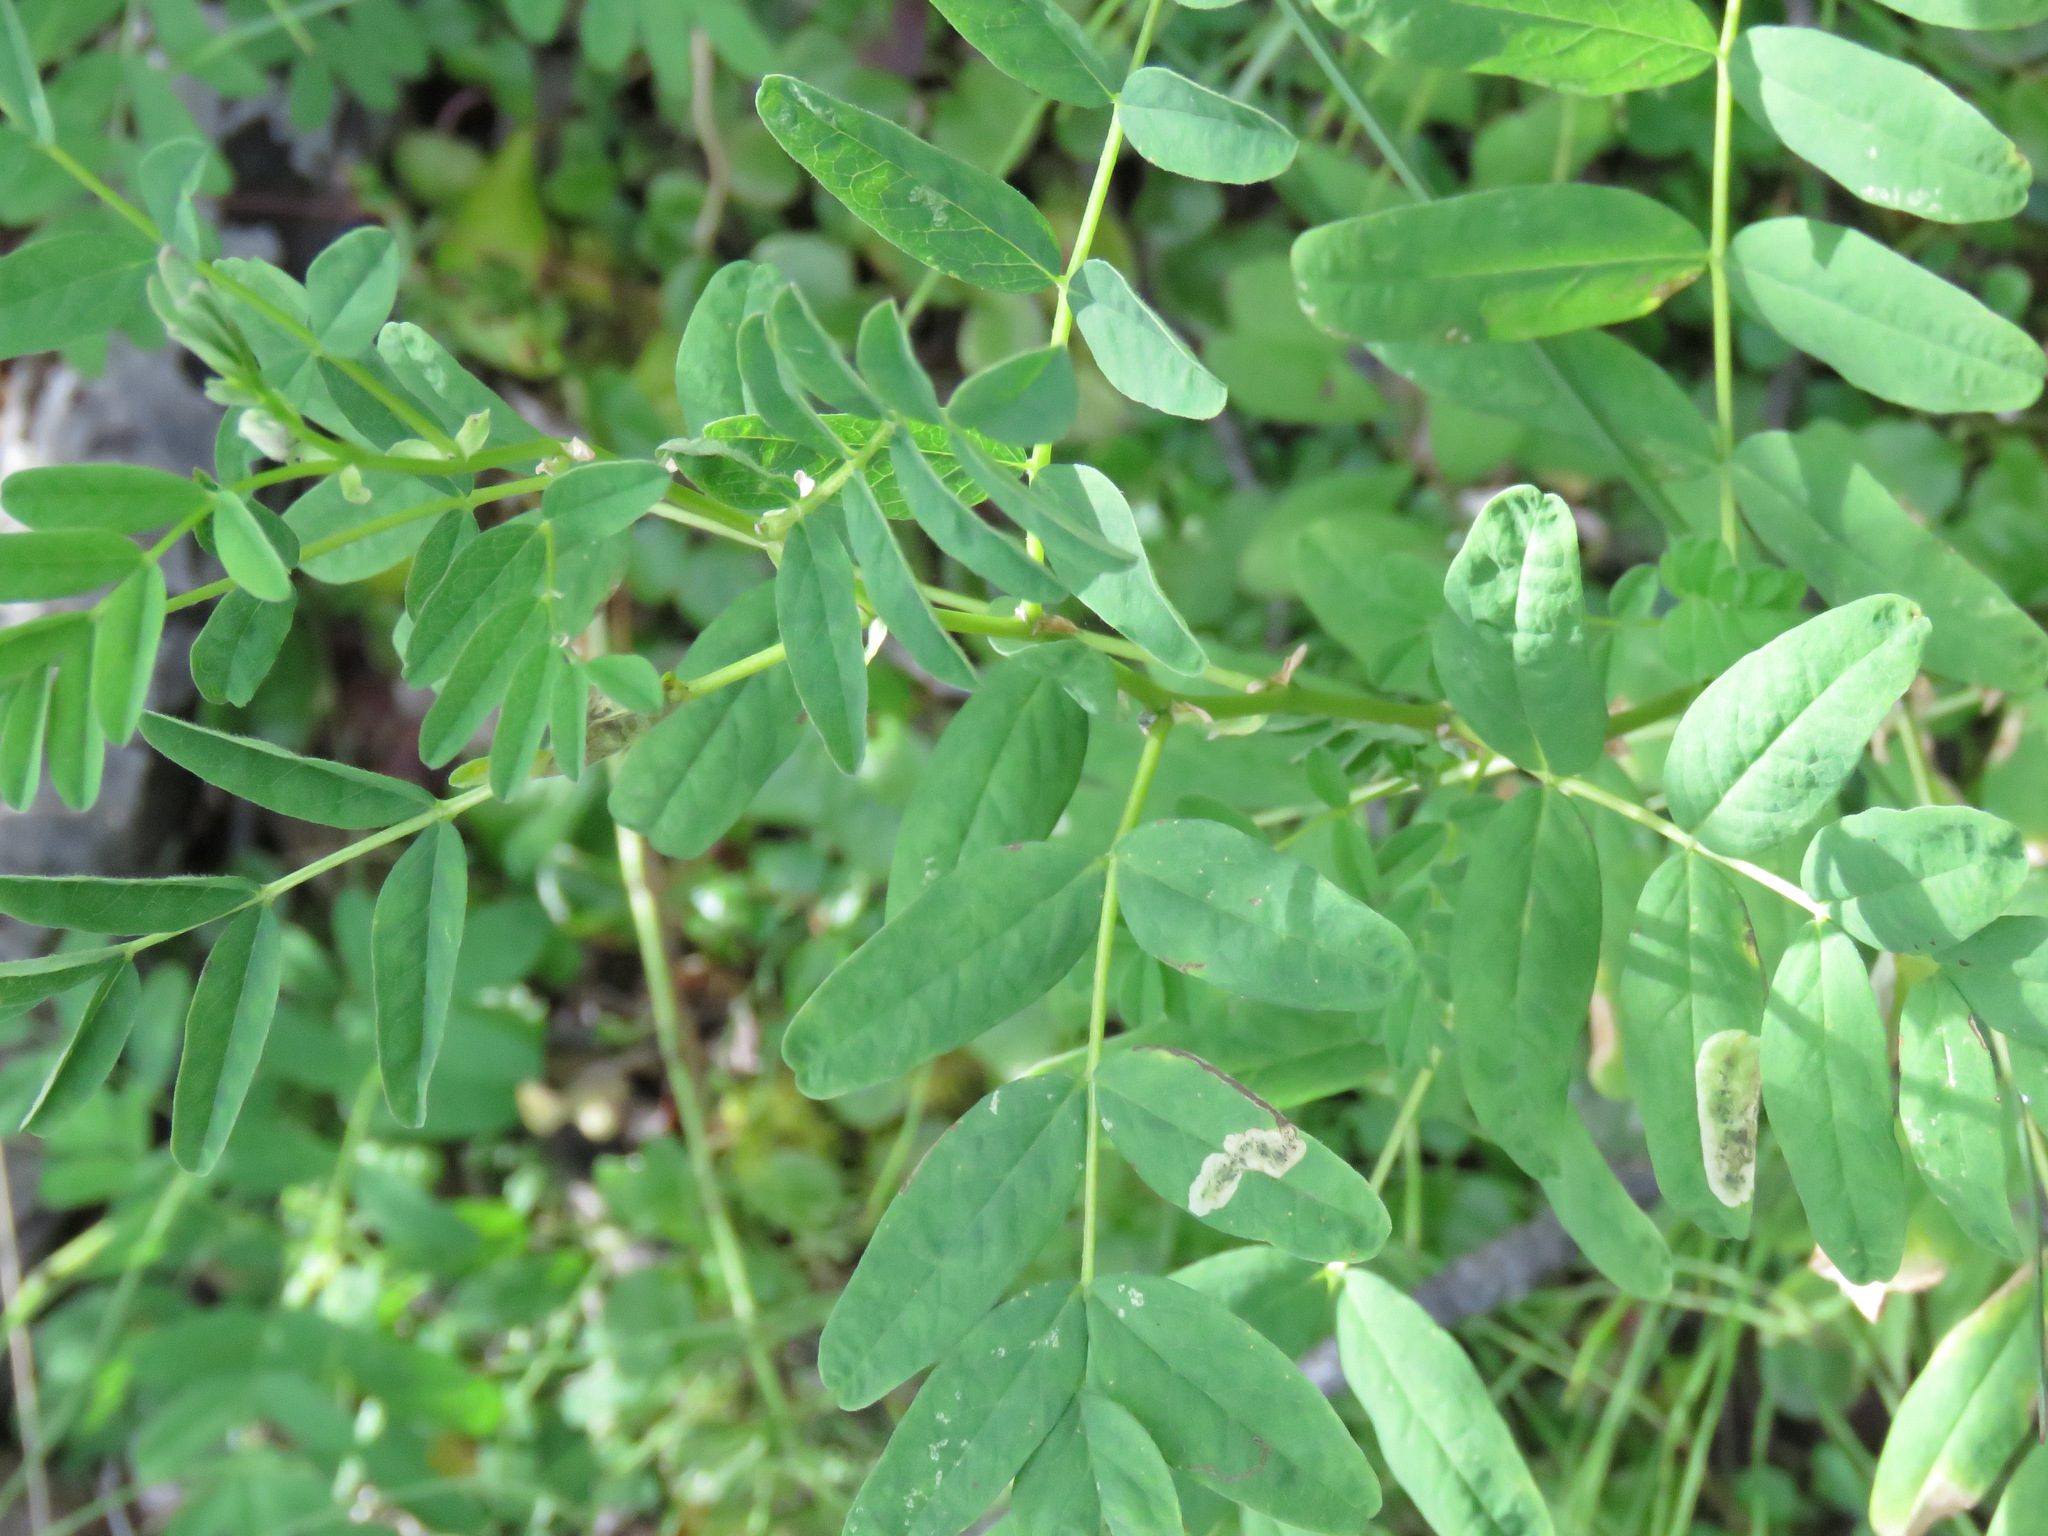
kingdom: Plantae
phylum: Tracheophyta
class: Magnoliopsida
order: Fabales
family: Fabaceae
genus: Astragalus
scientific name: Astragalus americanus
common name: American milk-vetch
